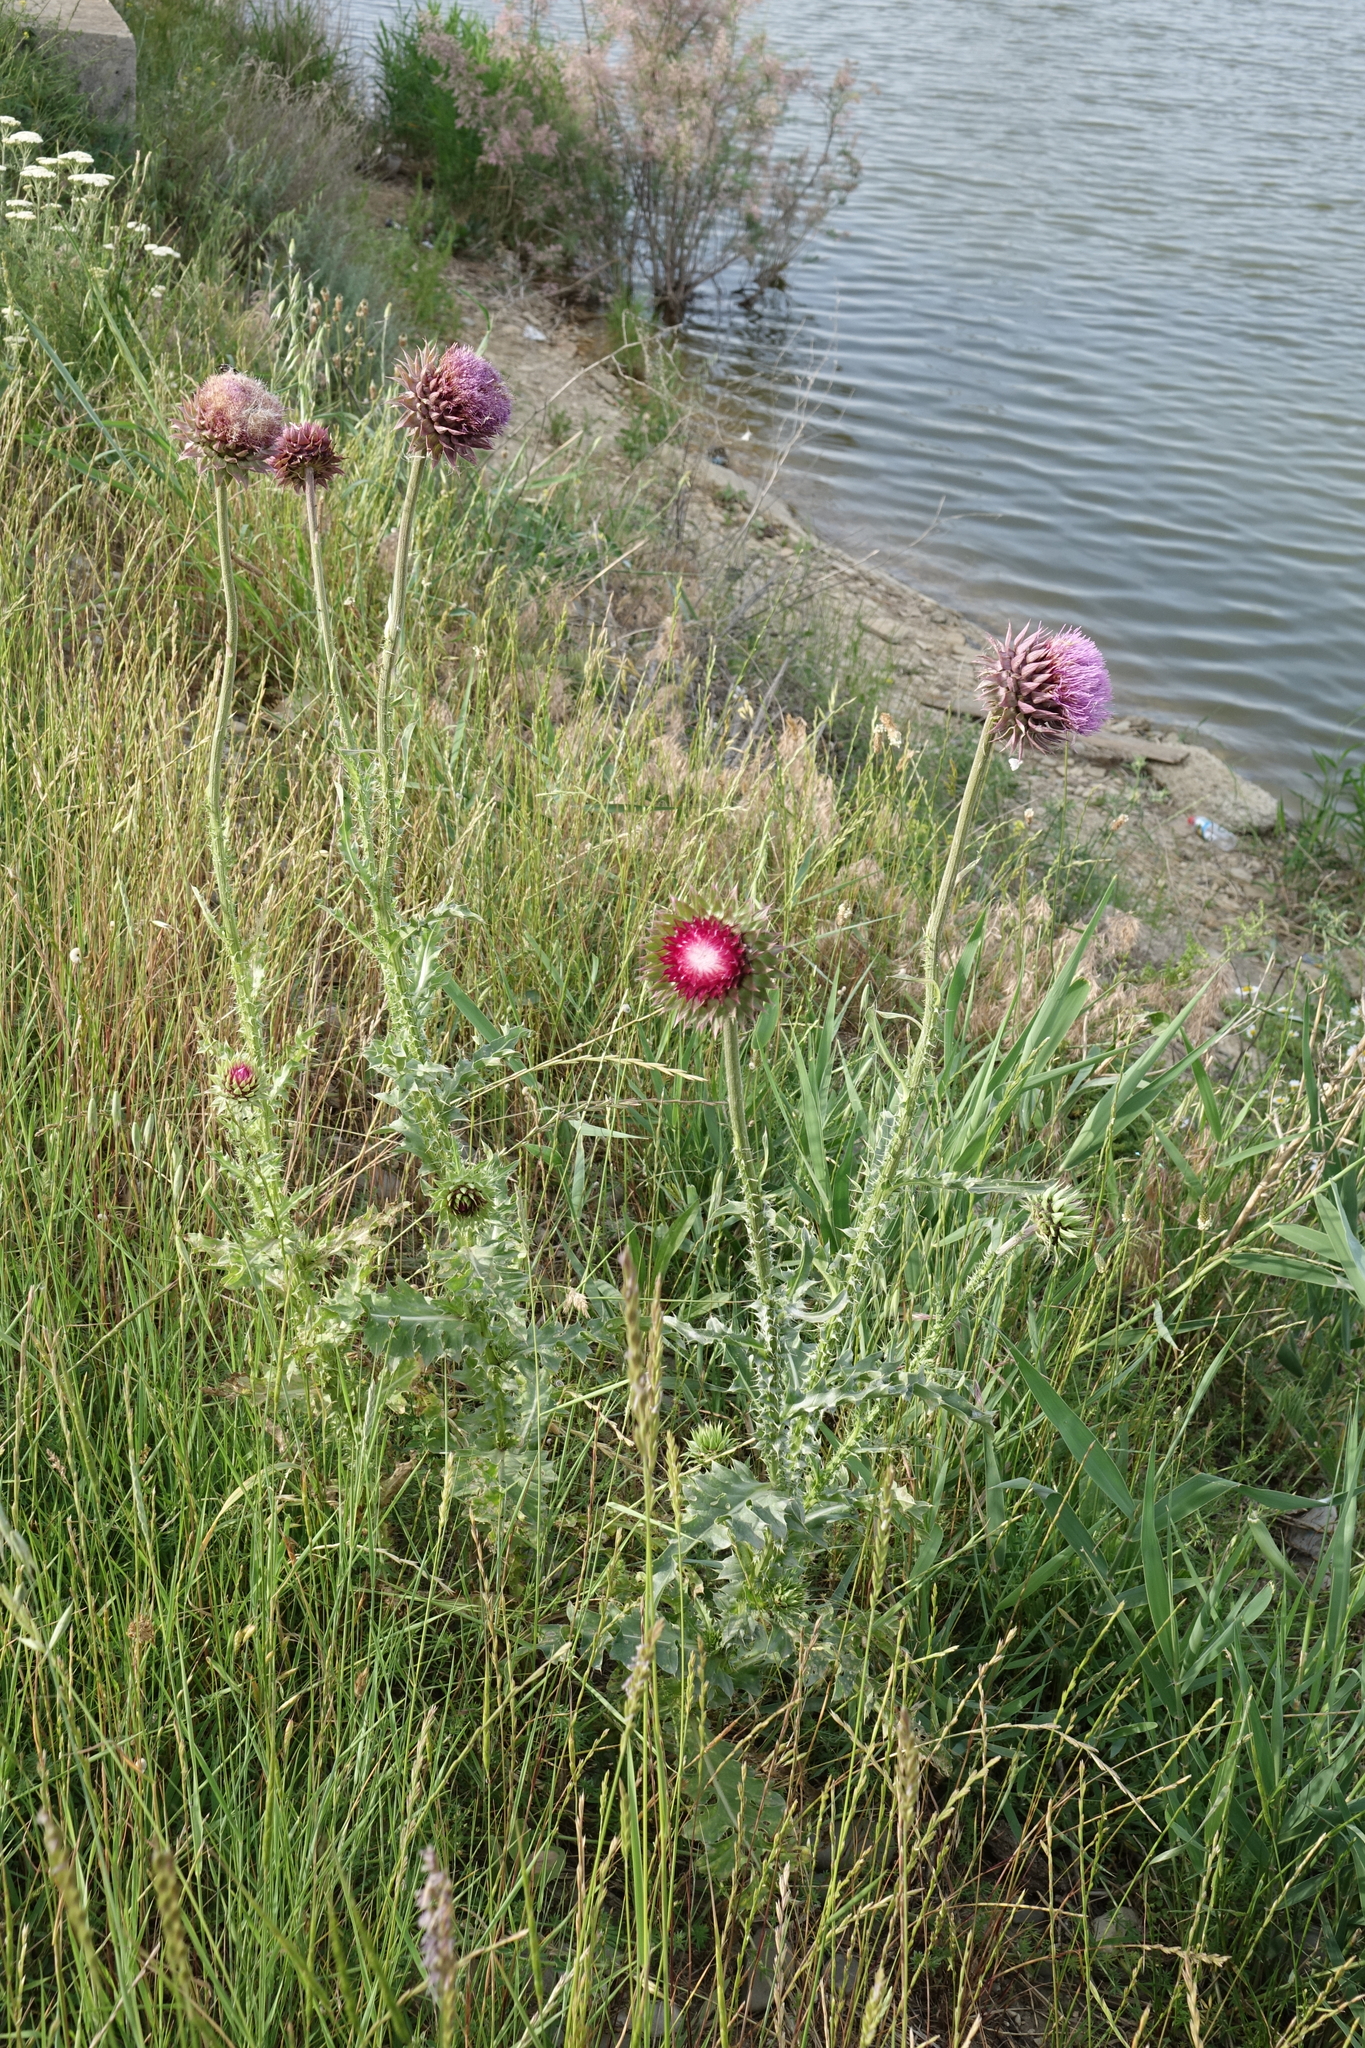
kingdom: Plantae
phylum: Tracheophyta
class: Magnoliopsida
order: Asterales
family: Asteraceae
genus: Carduus
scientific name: Carduus nutans
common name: Musk thistle
